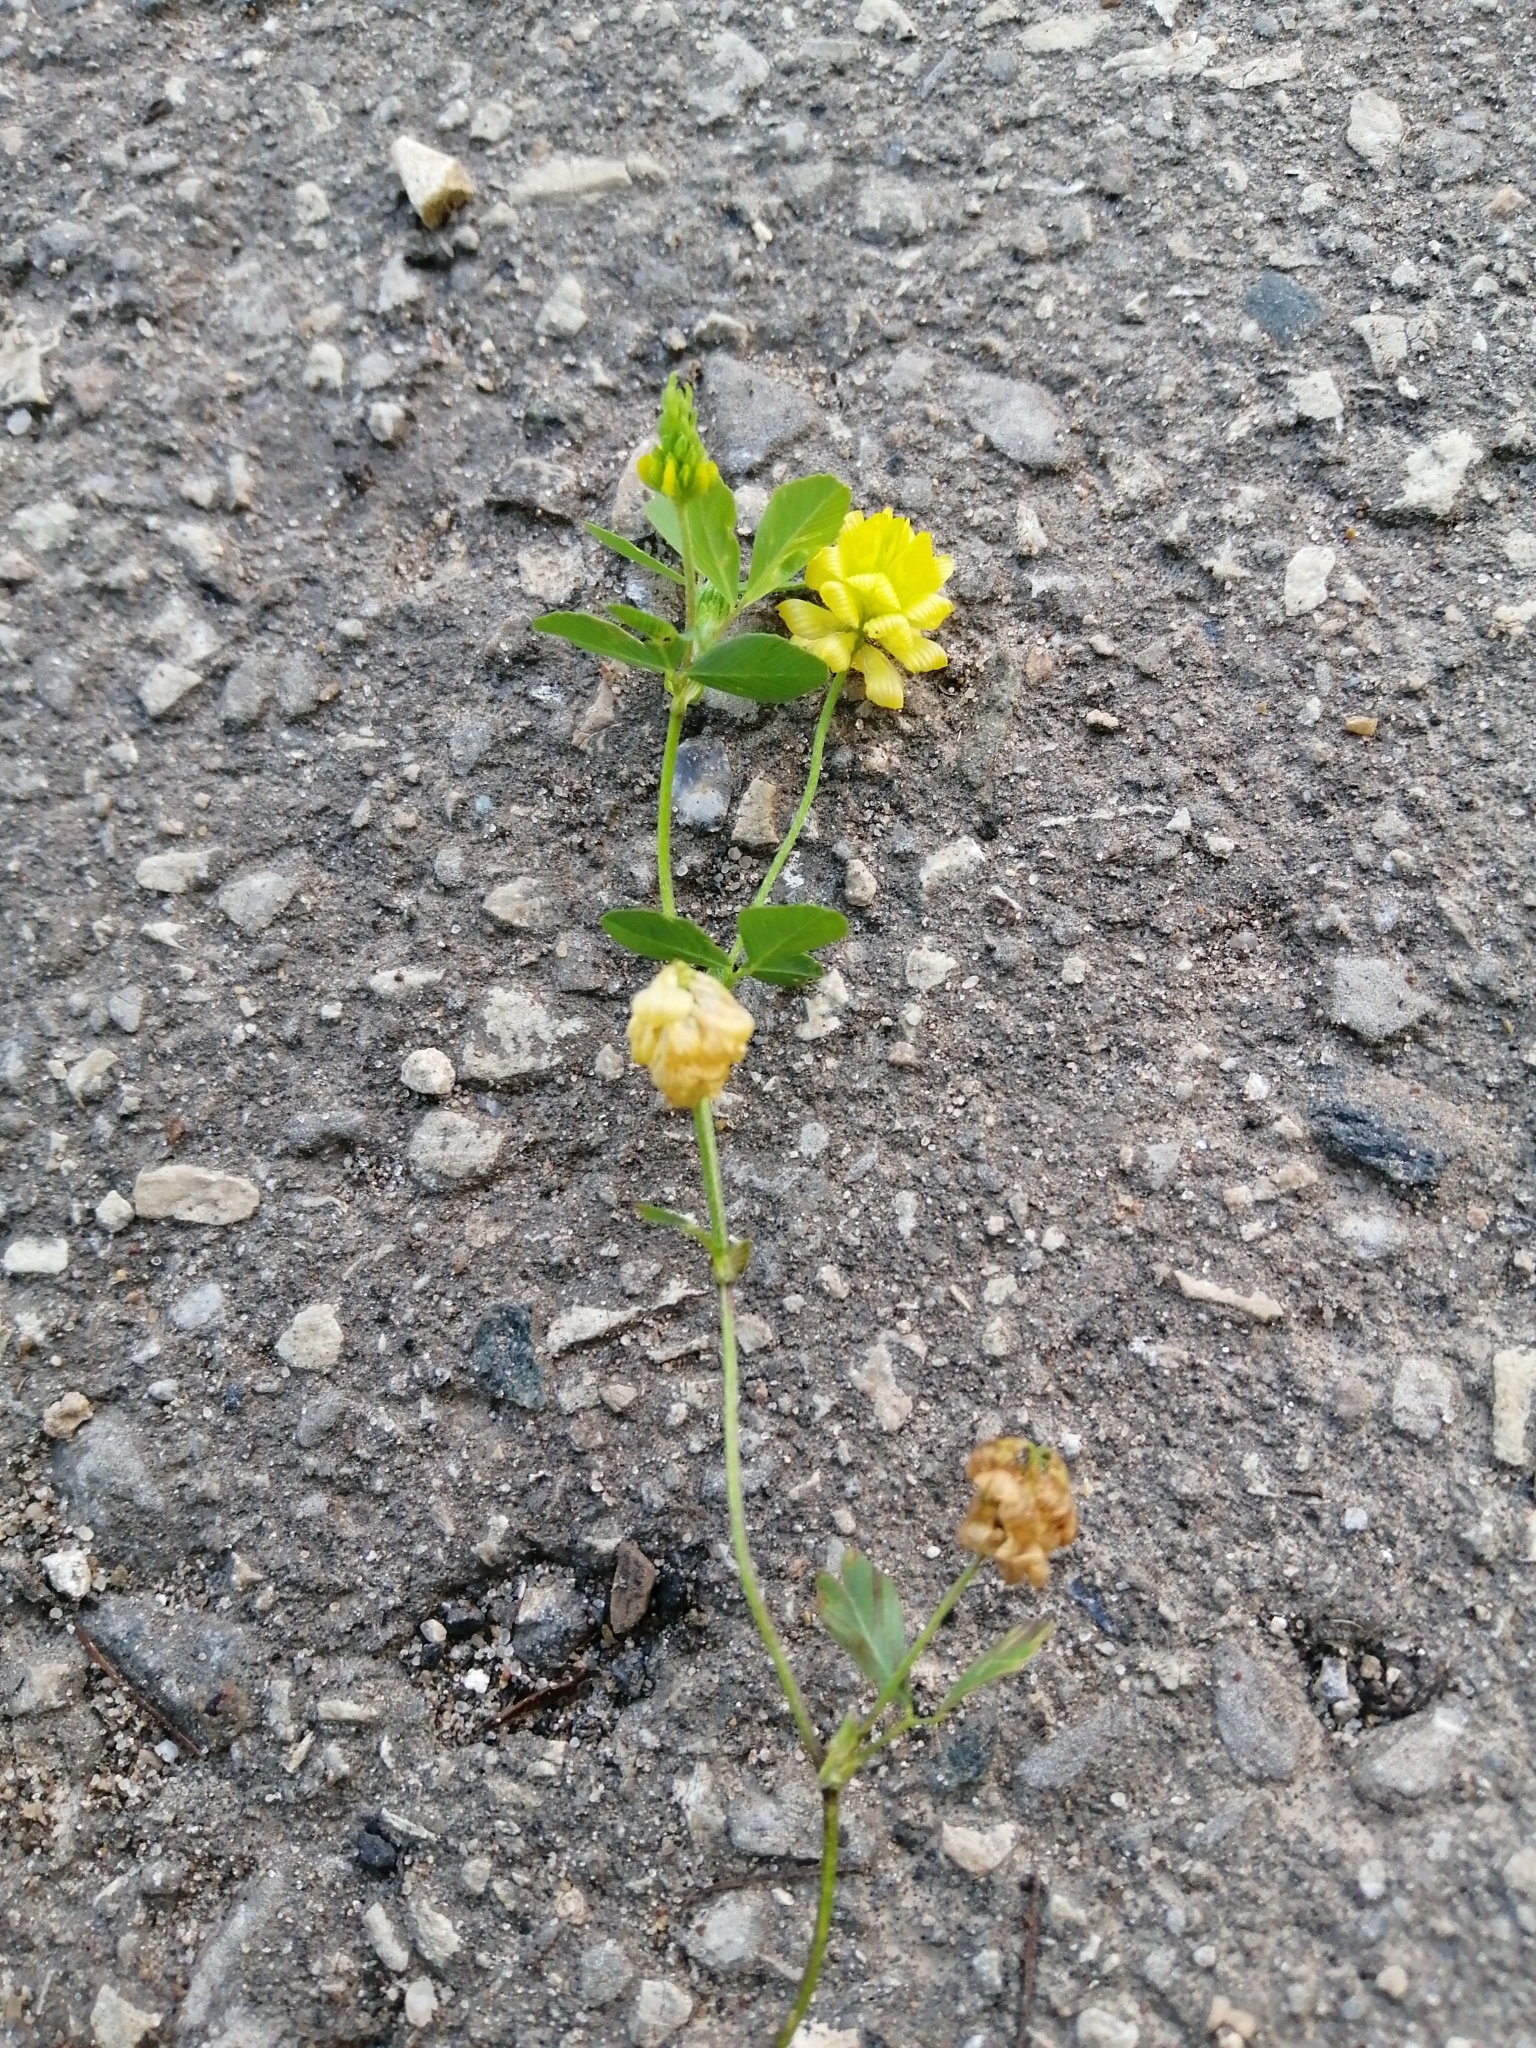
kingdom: Plantae
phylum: Tracheophyta
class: Magnoliopsida
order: Fabales
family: Fabaceae
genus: Trifolium
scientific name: Trifolium aureum
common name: Golden clover
